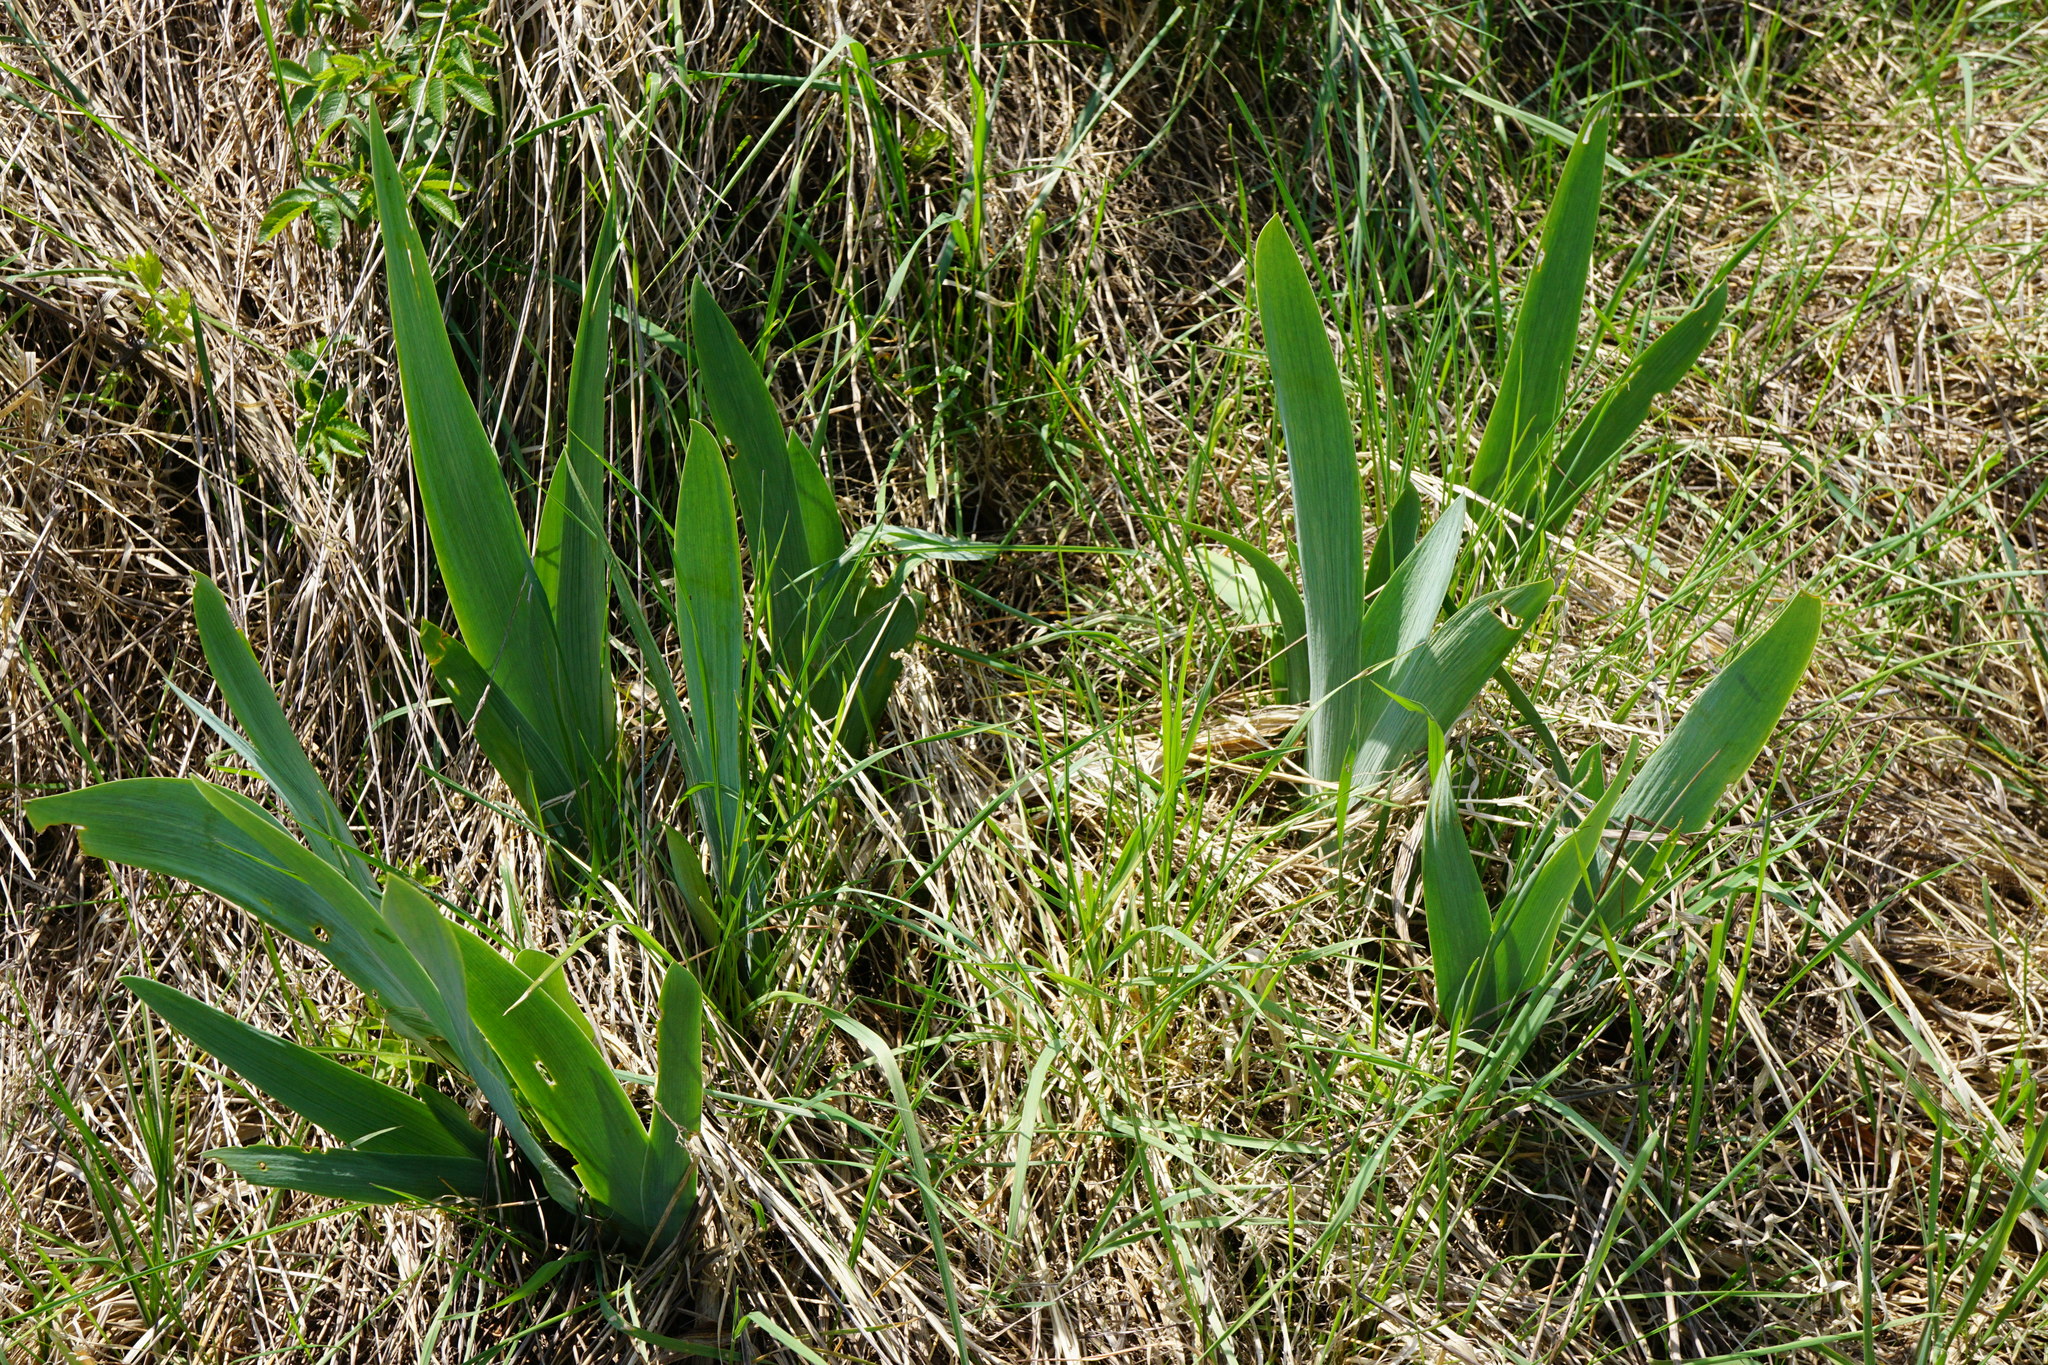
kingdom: Plantae
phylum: Tracheophyta
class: Liliopsida
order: Asparagales
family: Iridaceae
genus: Iris
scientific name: Iris germanica
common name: German iris
